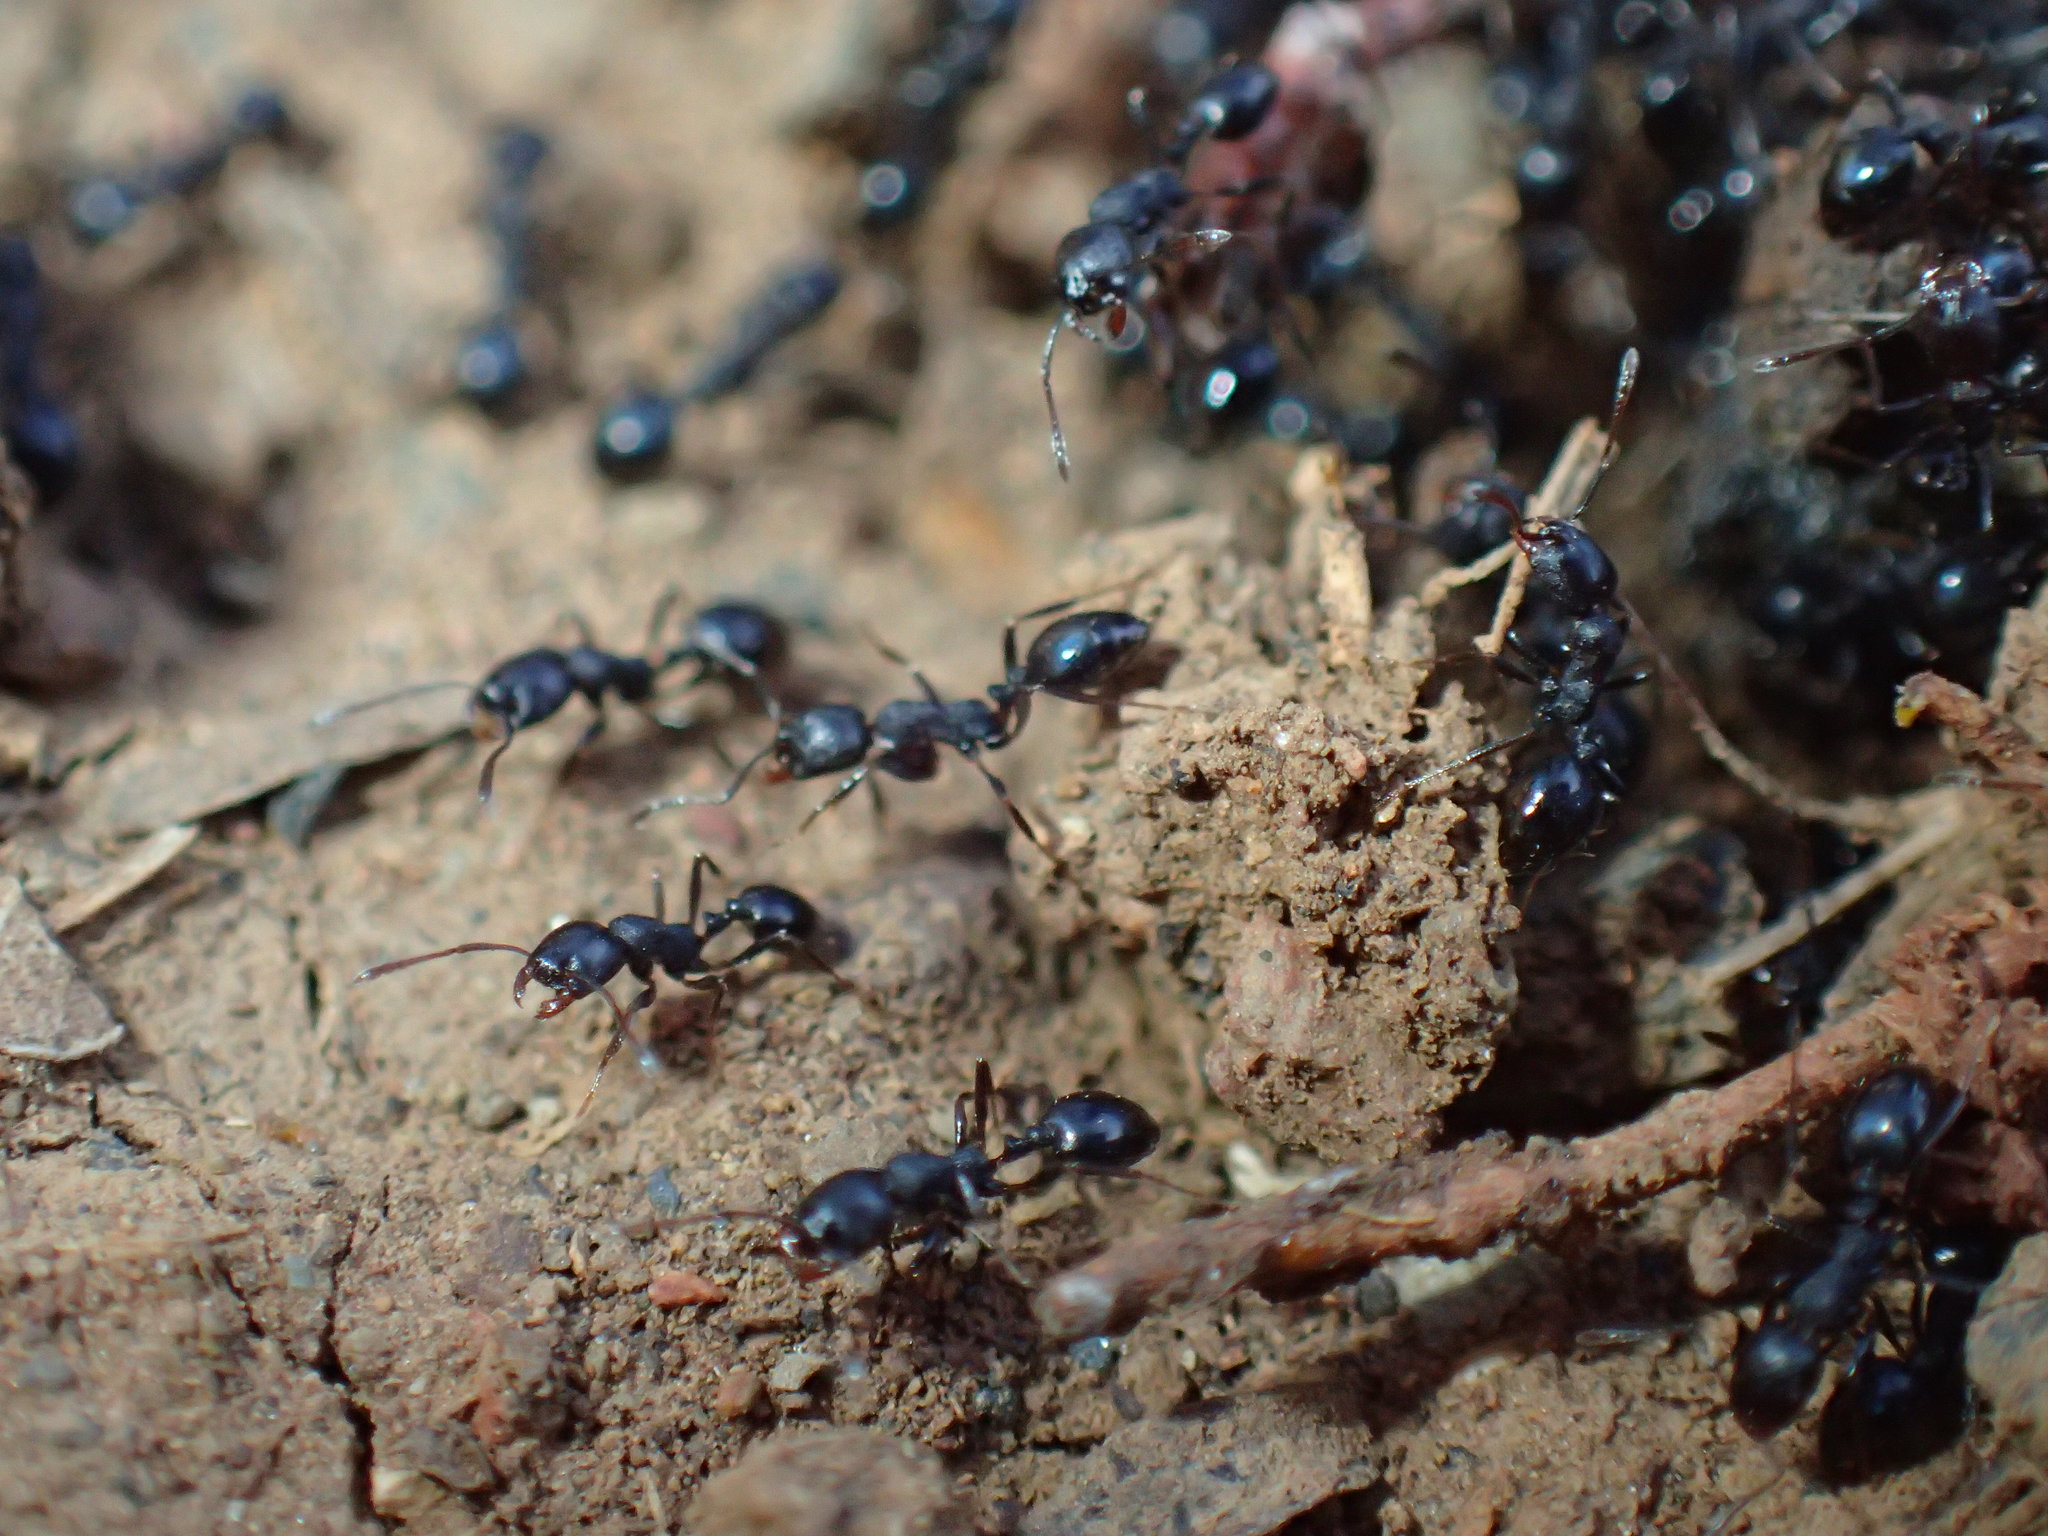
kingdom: Animalia
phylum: Arthropoda
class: Insecta
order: Hymenoptera
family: Formicidae
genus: Monomorium
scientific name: Monomorium paternum
